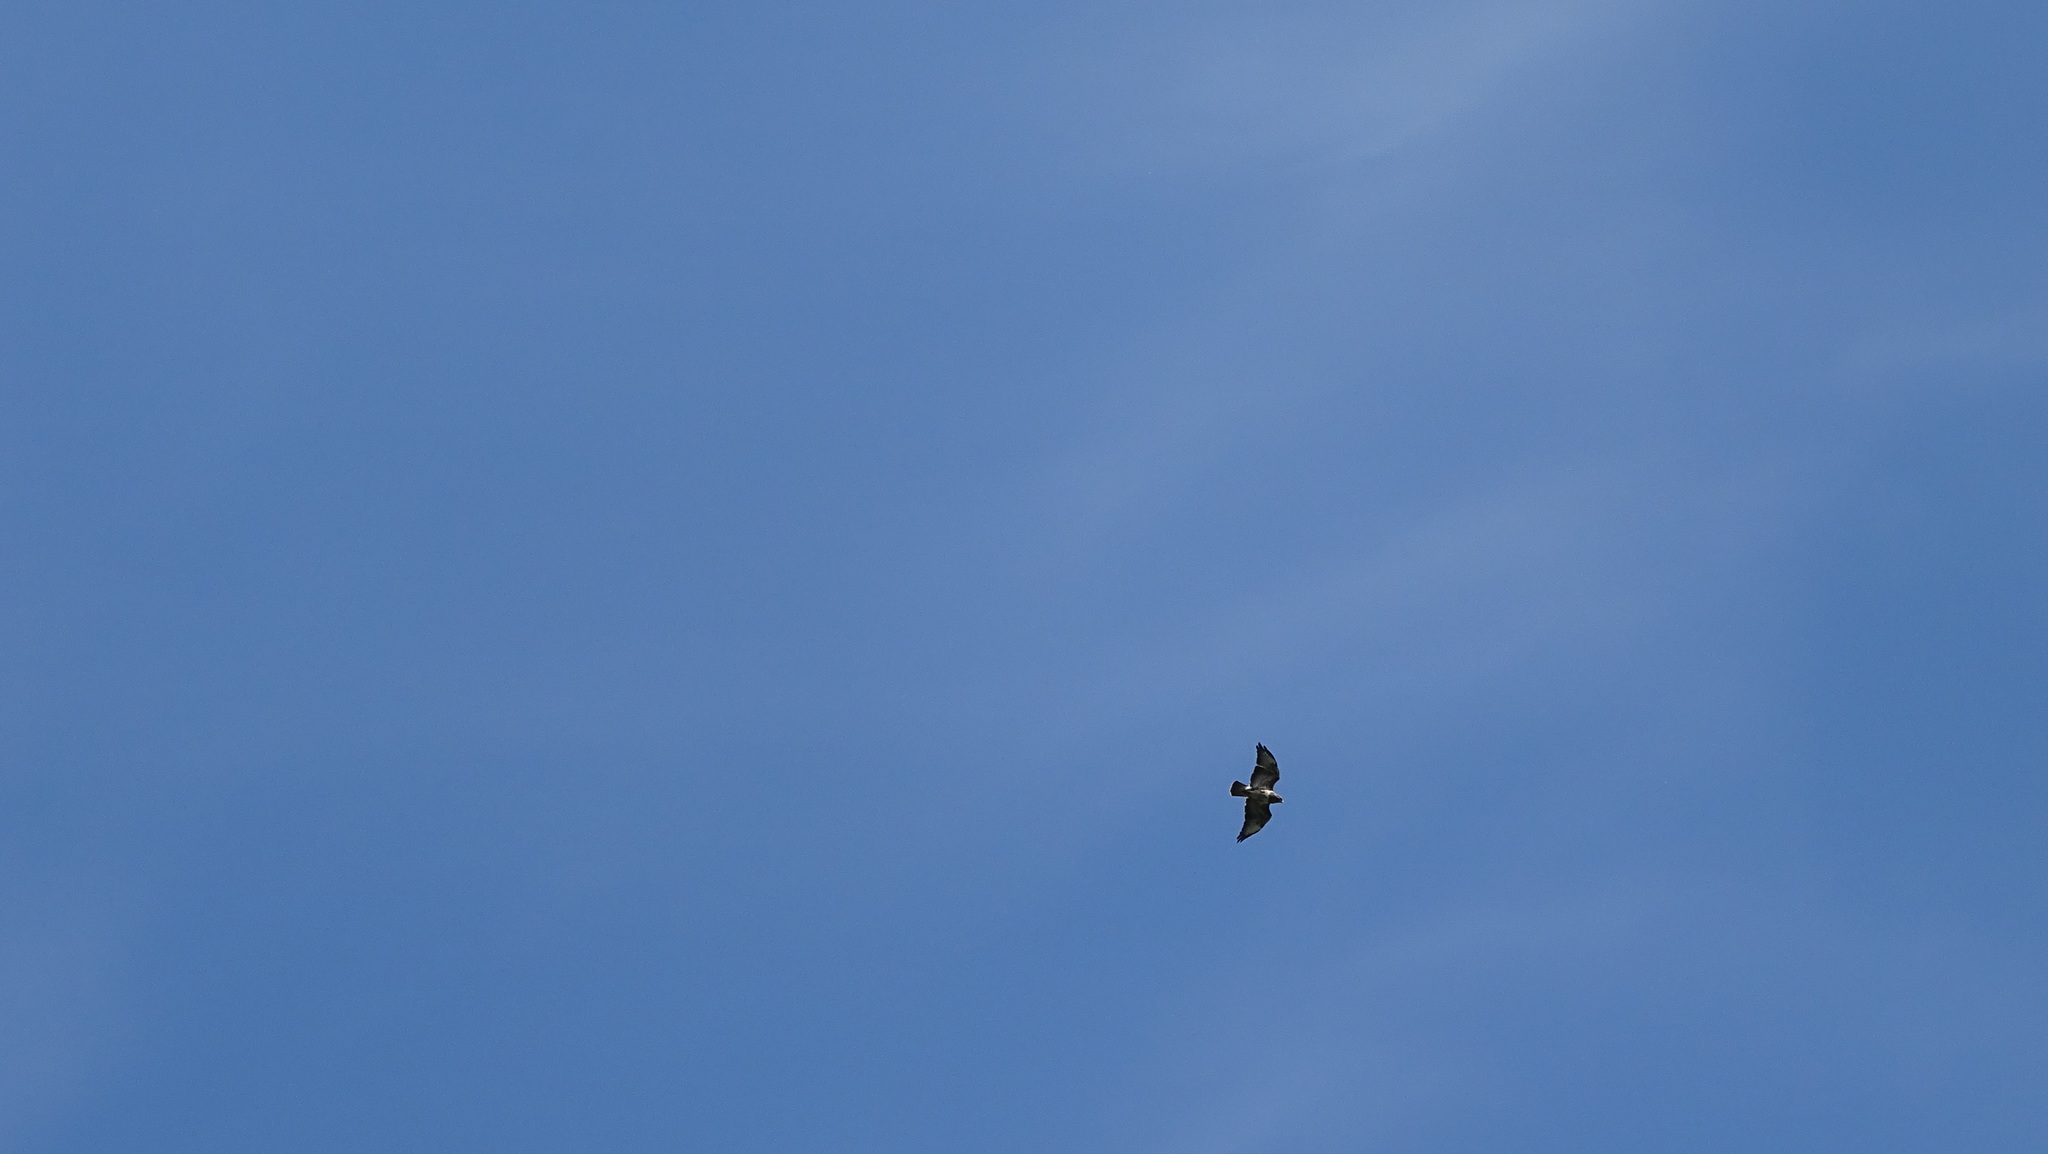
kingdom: Animalia
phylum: Chordata
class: Aves
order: Accipitriformes
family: Accipitridae
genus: Buteo
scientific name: Buteo buteo
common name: Common buzzard
